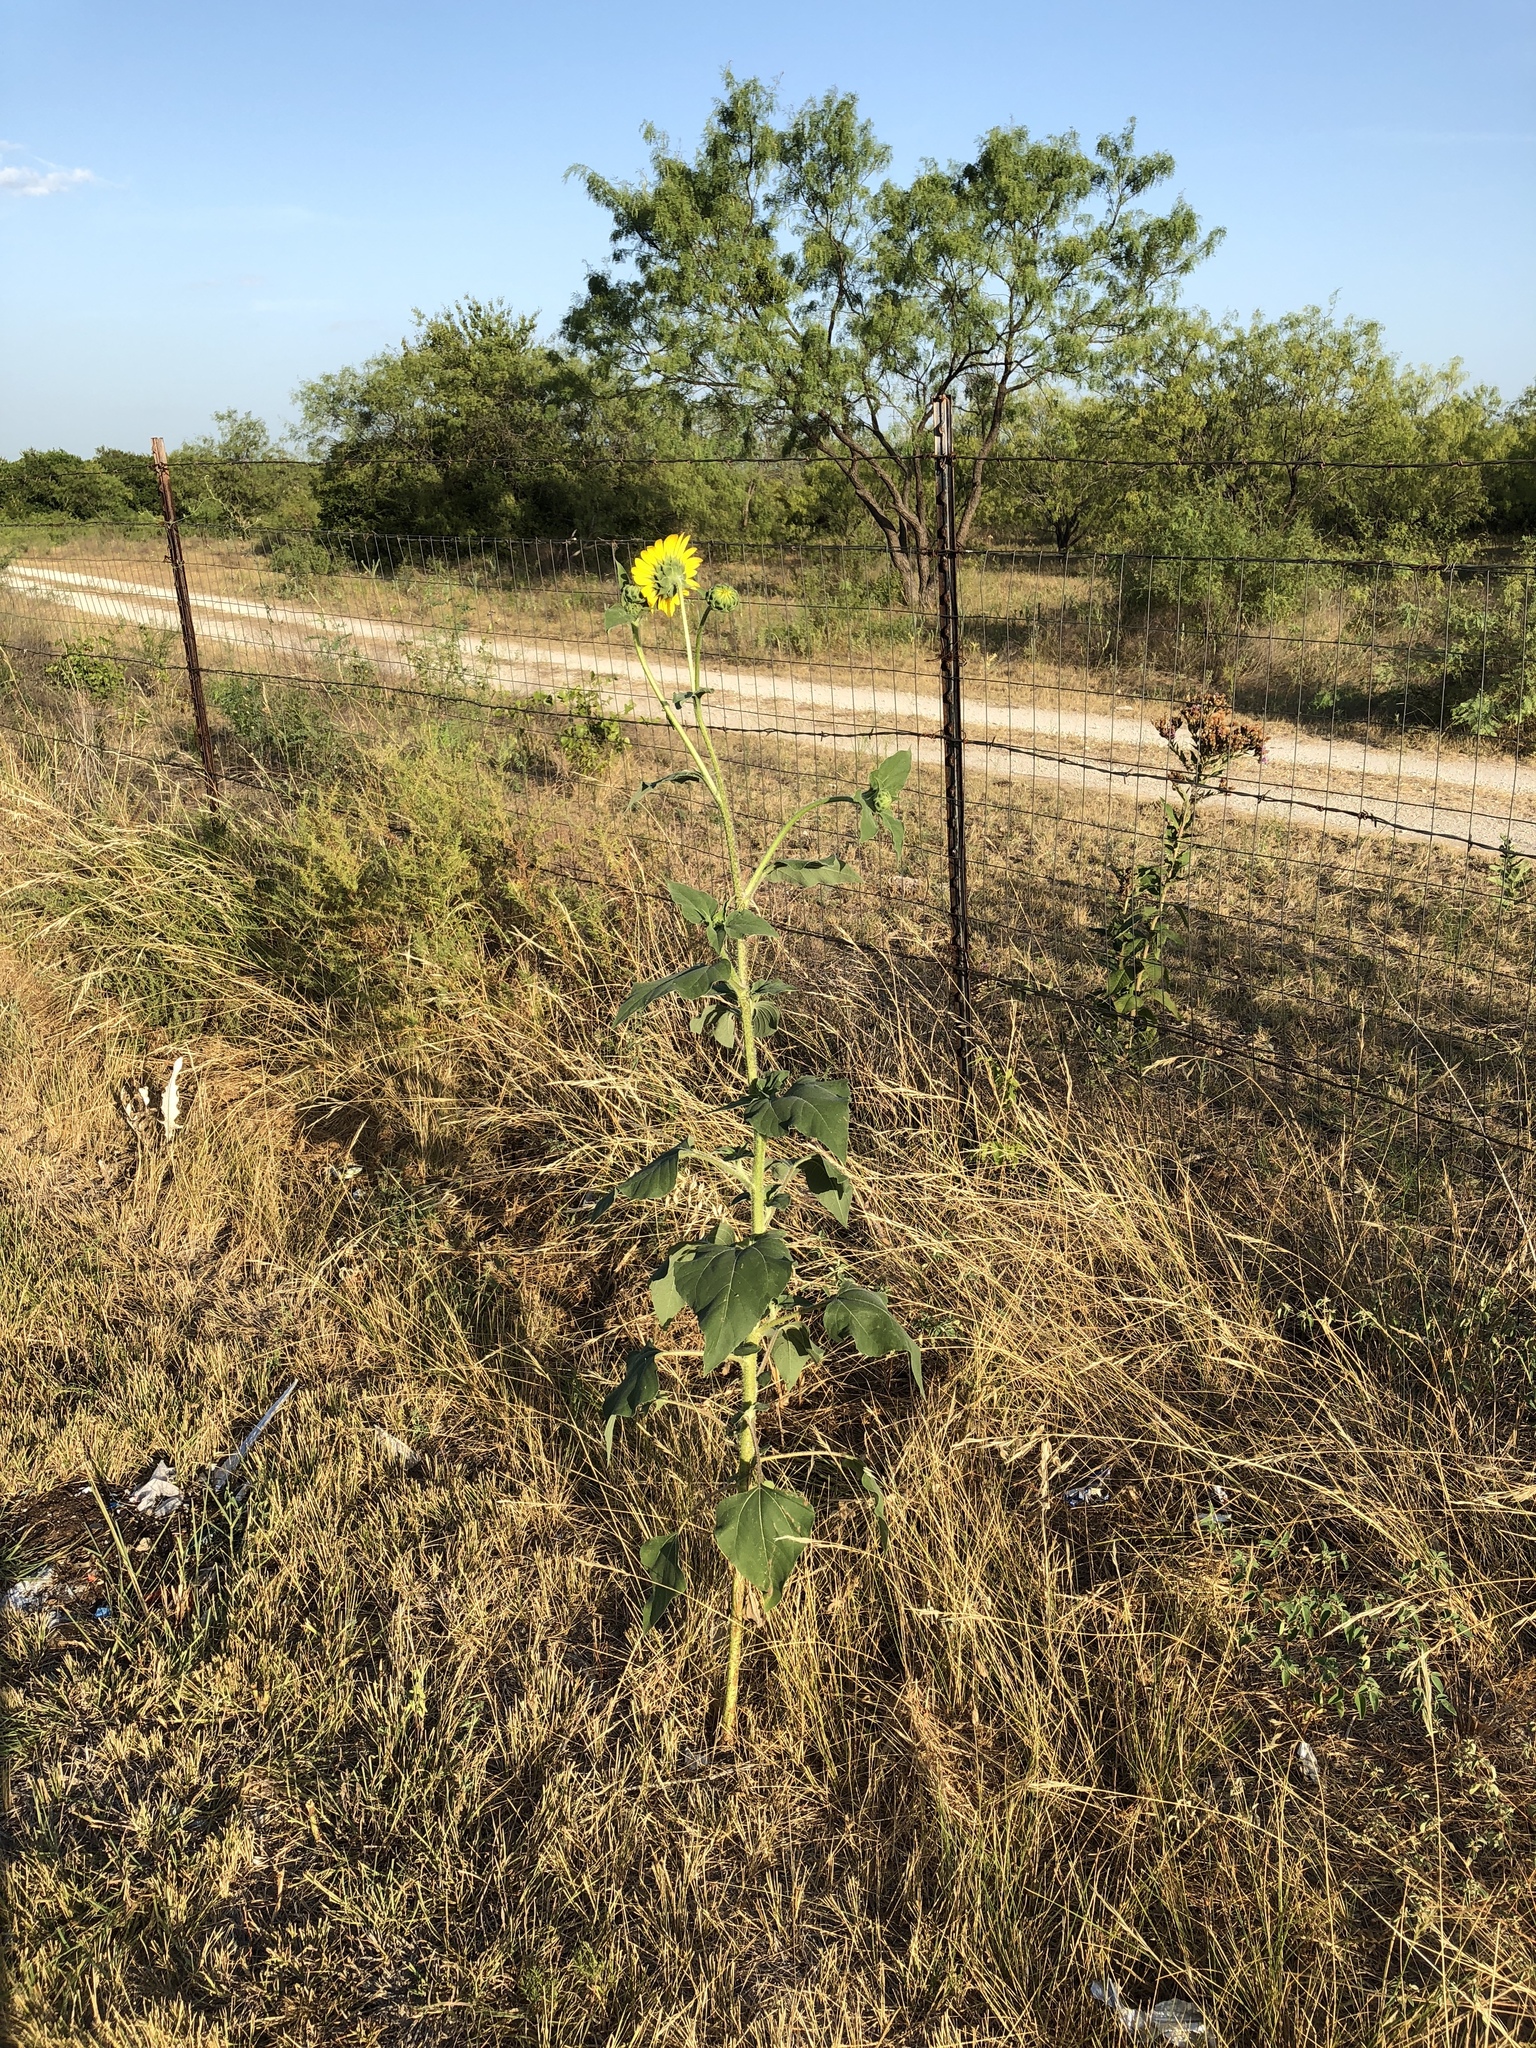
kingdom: Plantae
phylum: Tracheophyta
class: Magnoliopsida
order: Asterales
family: Asteraceae
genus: Helianthus
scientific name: Helianthus annuus
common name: Sunflower
